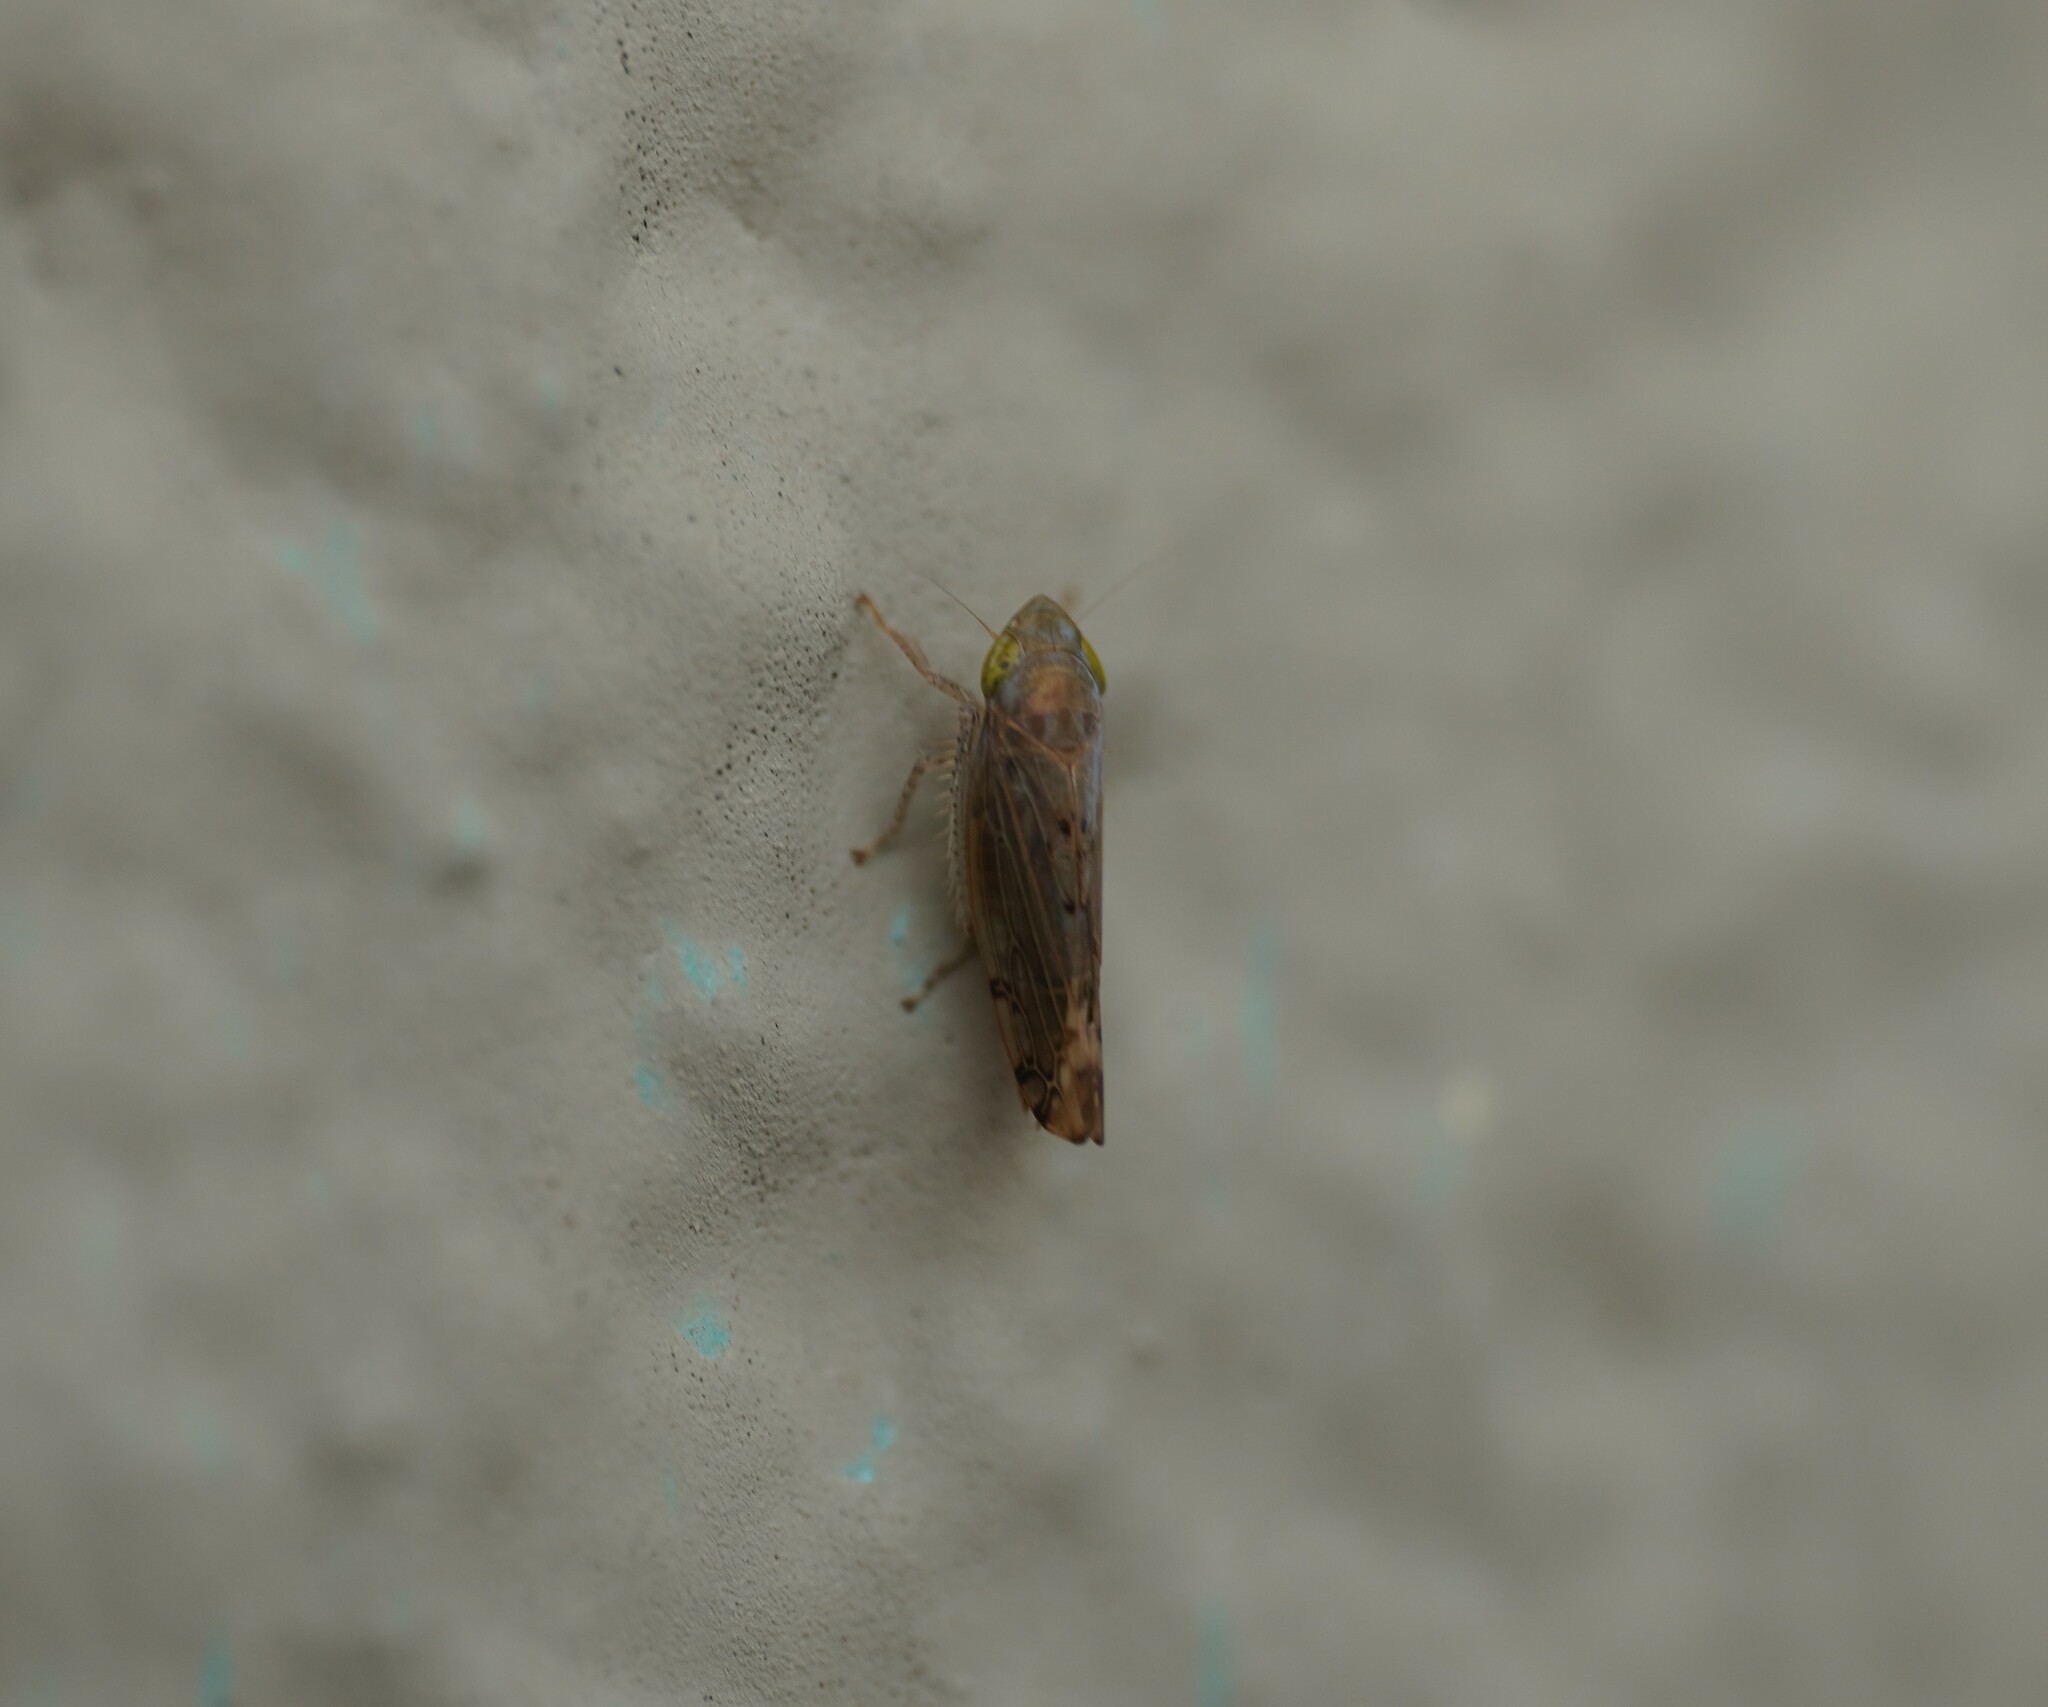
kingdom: Animalia
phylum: Arthropoda
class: Insecta
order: Hemiptera
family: Cicadellidae
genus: Synophropsis
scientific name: Synophropsis lauri
